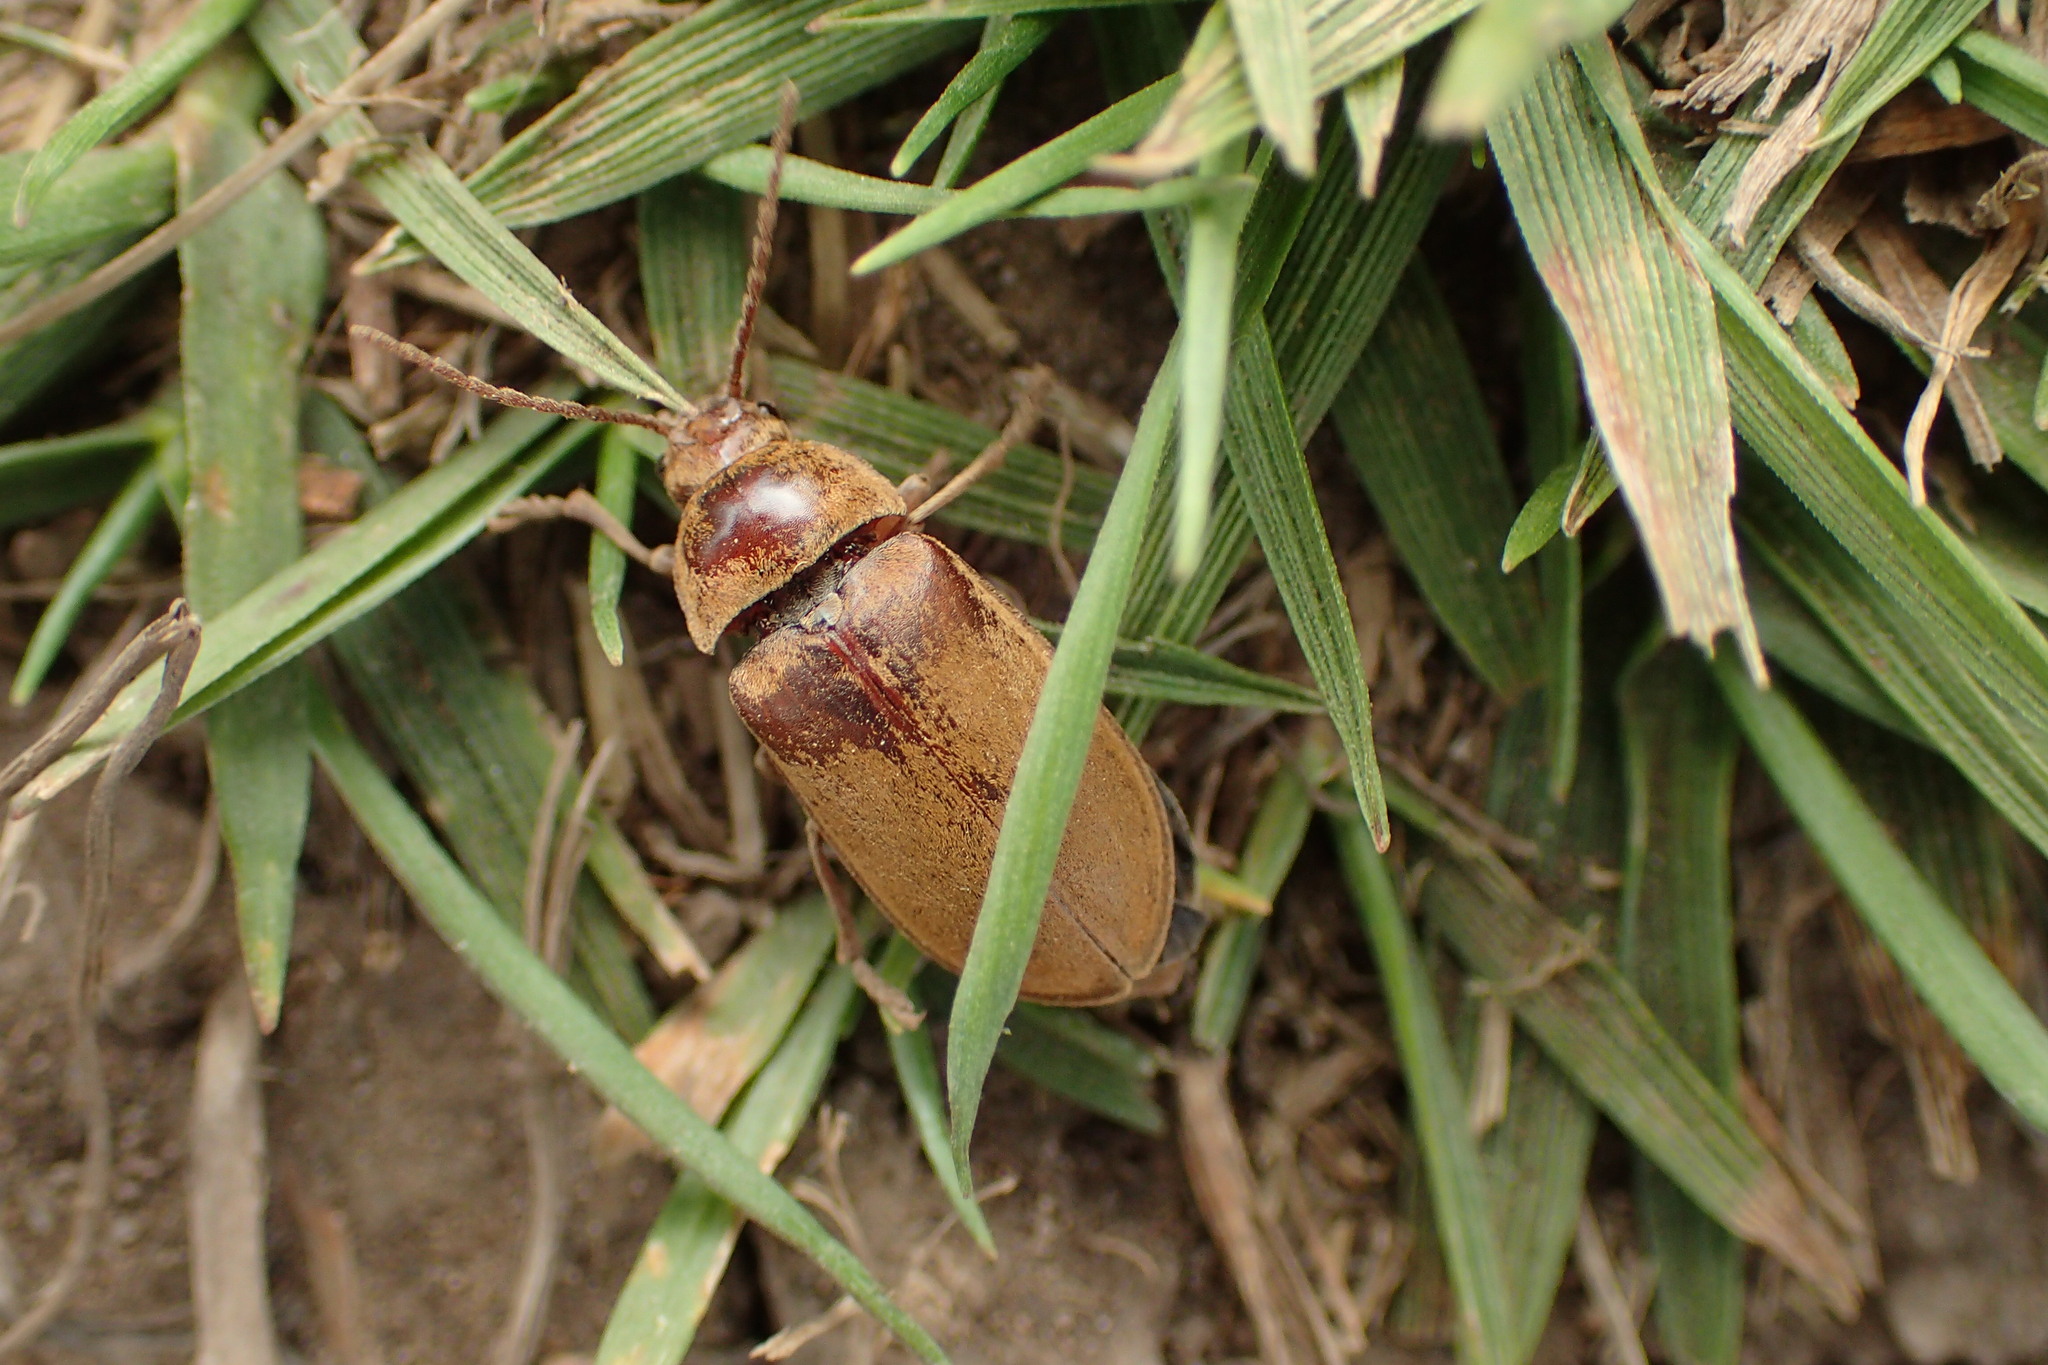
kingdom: Animalia
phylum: Arthropoda
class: Insecta
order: Coleoptera
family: Dascillidae
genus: Dascillus
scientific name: Dascillus cervinus
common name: Orchid beetle
